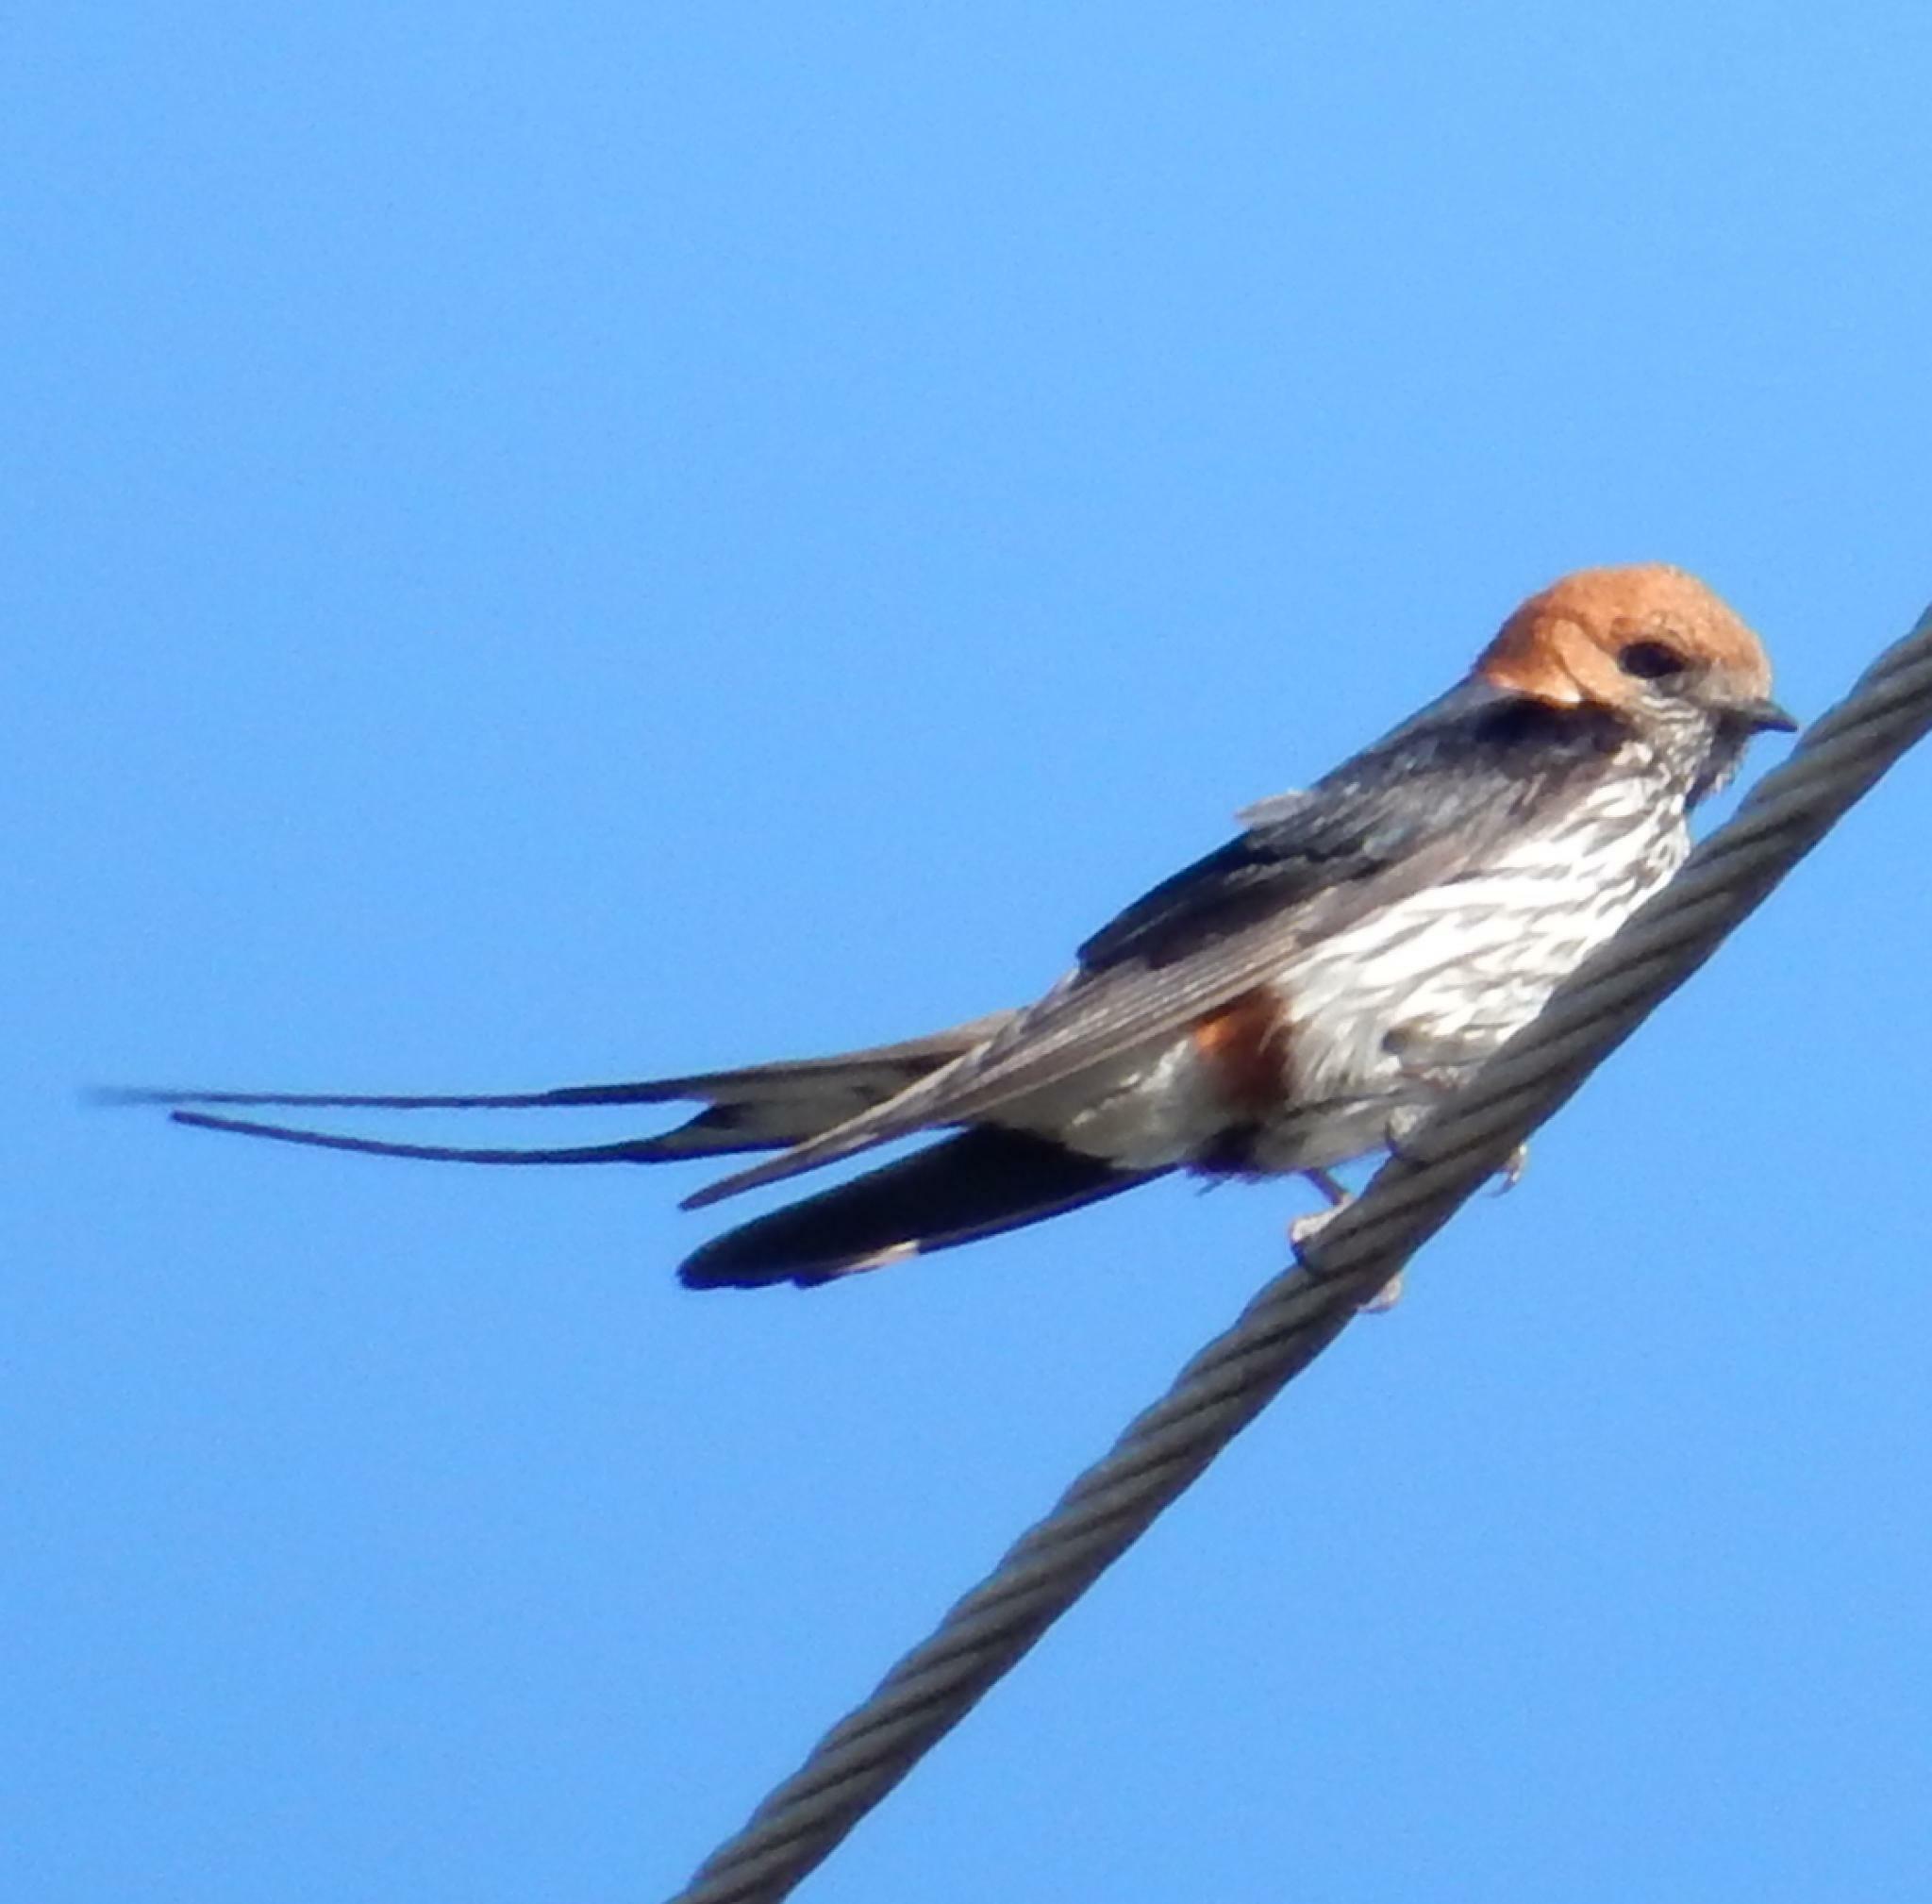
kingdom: Animalia
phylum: Chordata
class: Aves
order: Passeriformes
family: Hirundinidae
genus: Cecropis
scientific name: Cecropis abyssinica
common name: Lesser striped-swallow
